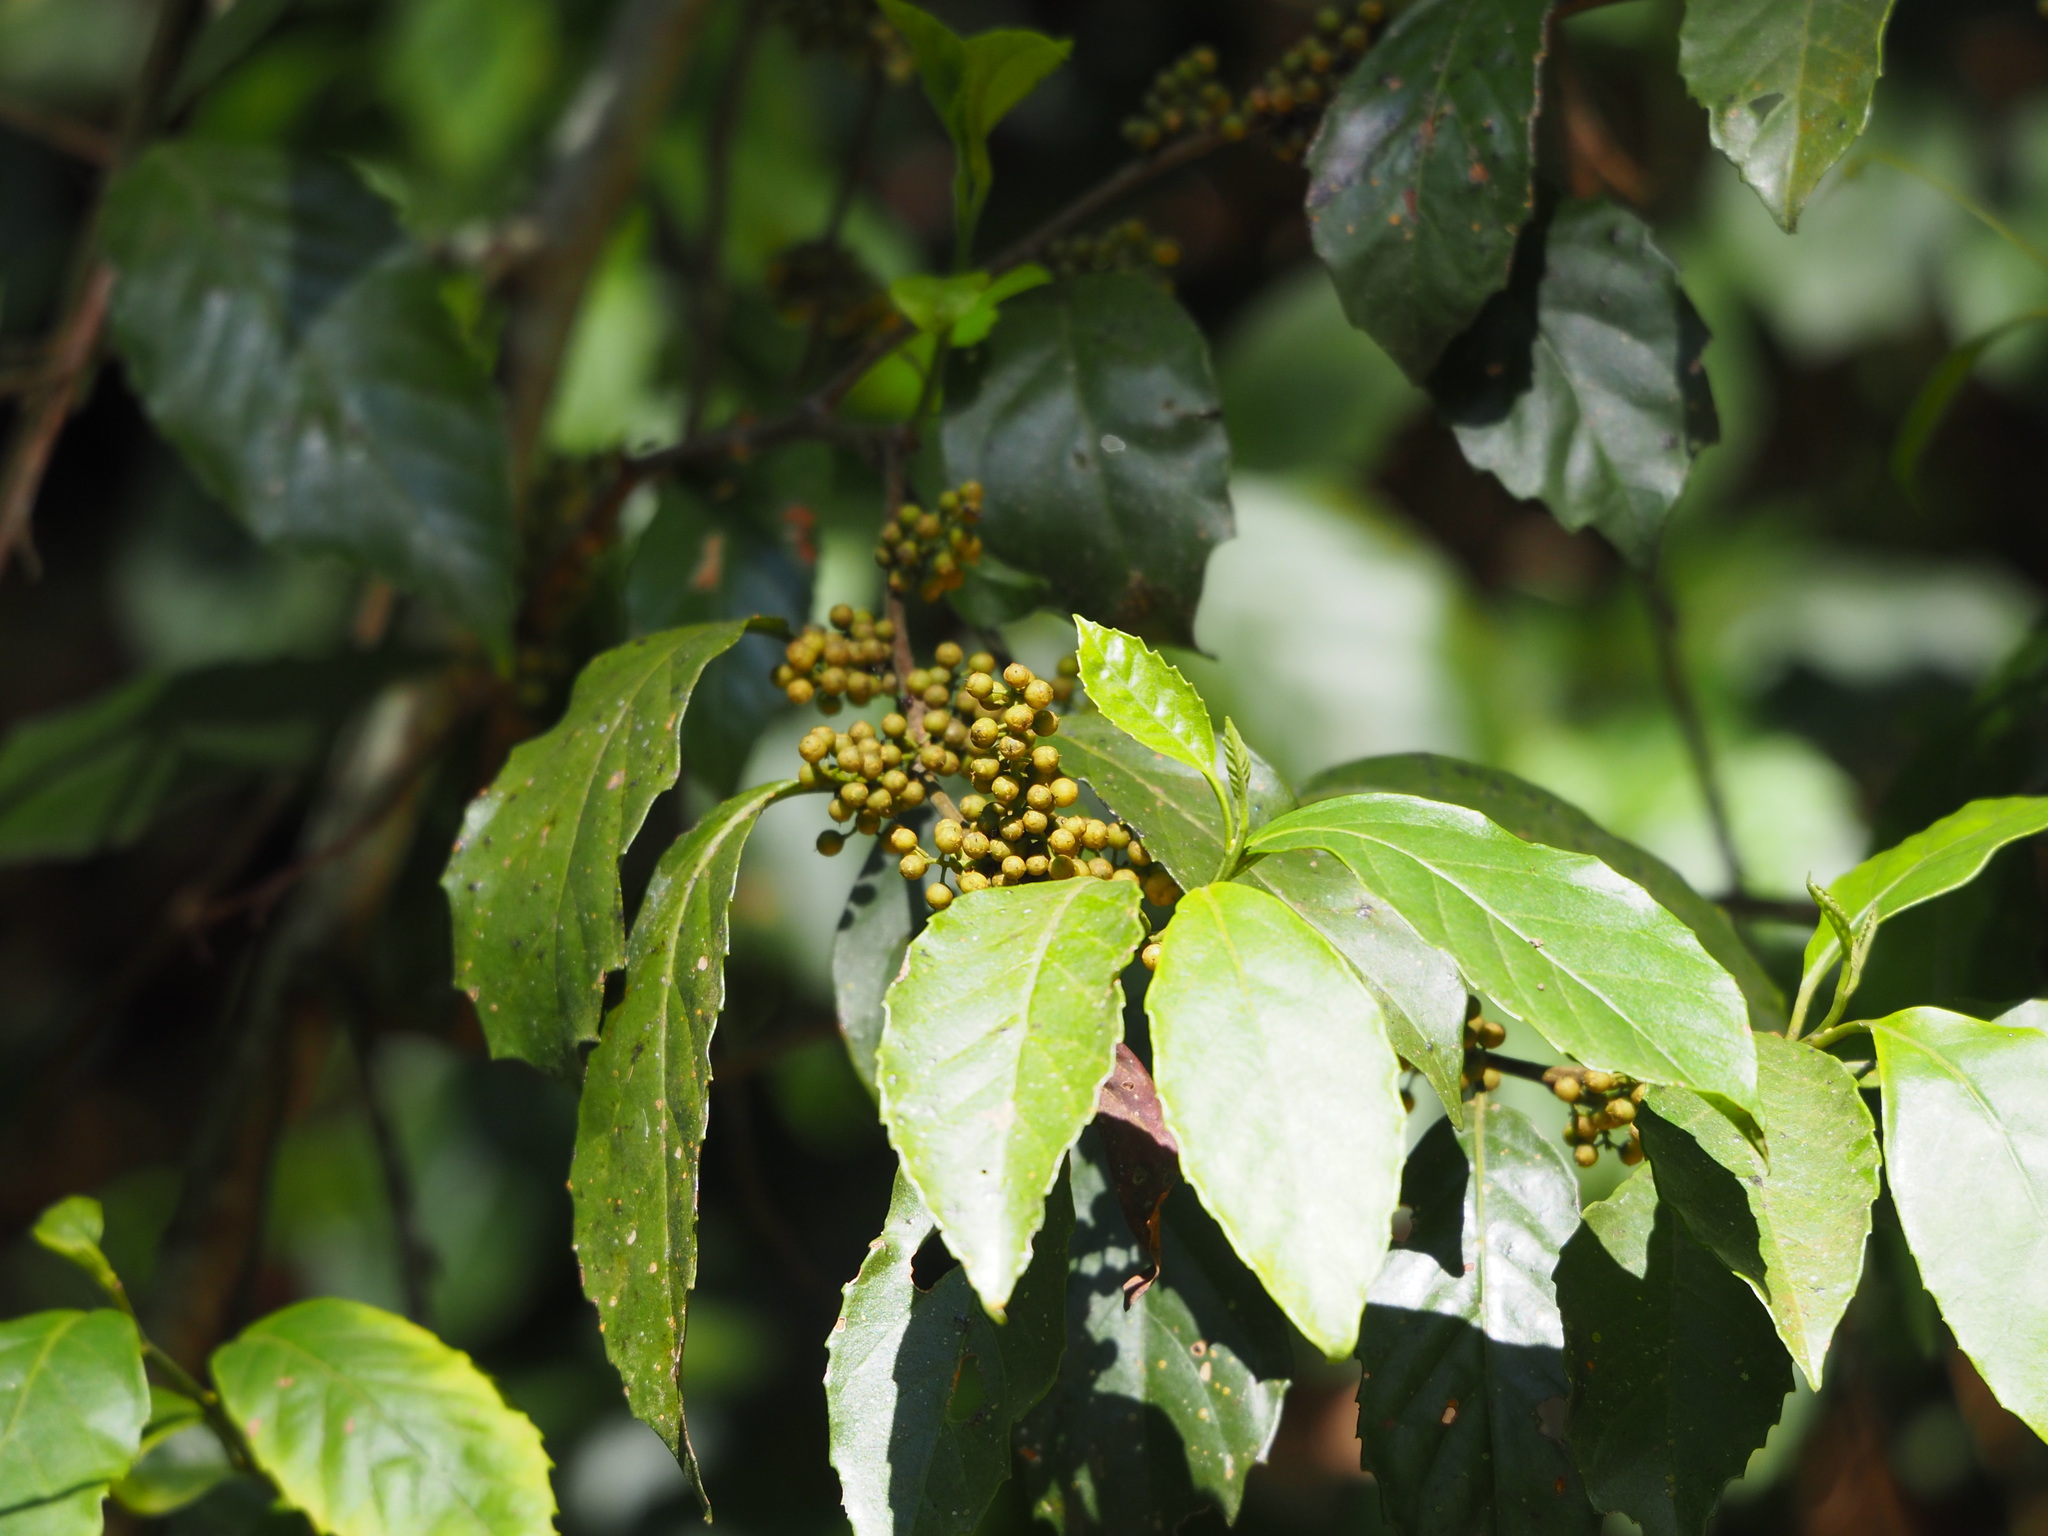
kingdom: Plantae
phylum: Tracheophyta
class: Magnoliopsida
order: Ericales
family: Primulaceae
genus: Maesa
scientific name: Maesa perlaria
